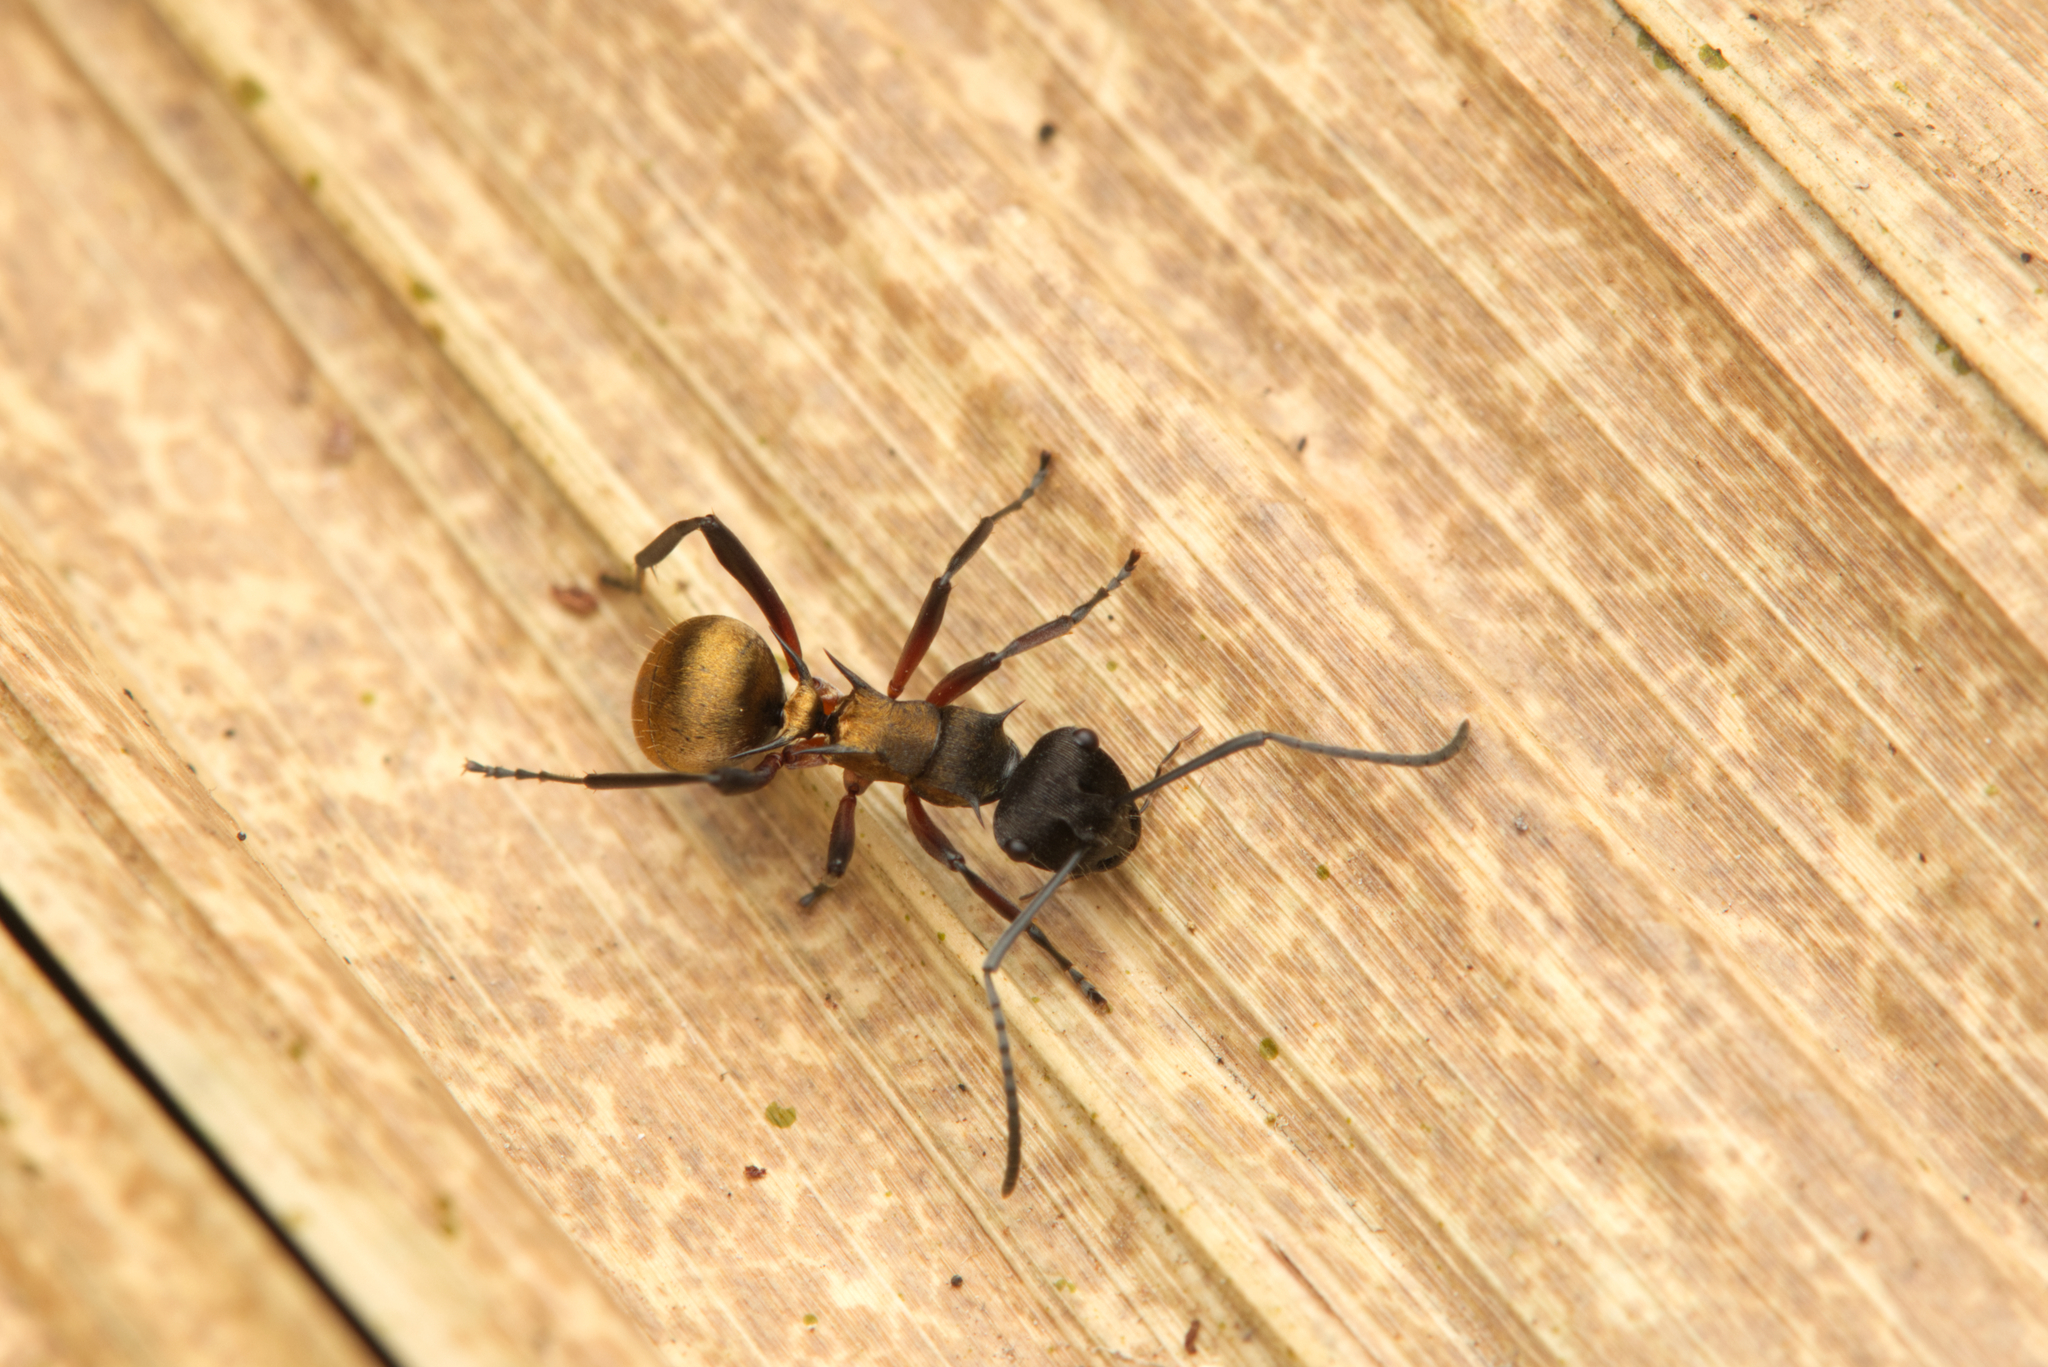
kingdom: Animalia
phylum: Arthropoda
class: Insecta
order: Hymenoptera
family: Formicidae
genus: Polyrhachis
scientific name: Polyrhachis rufifemur
